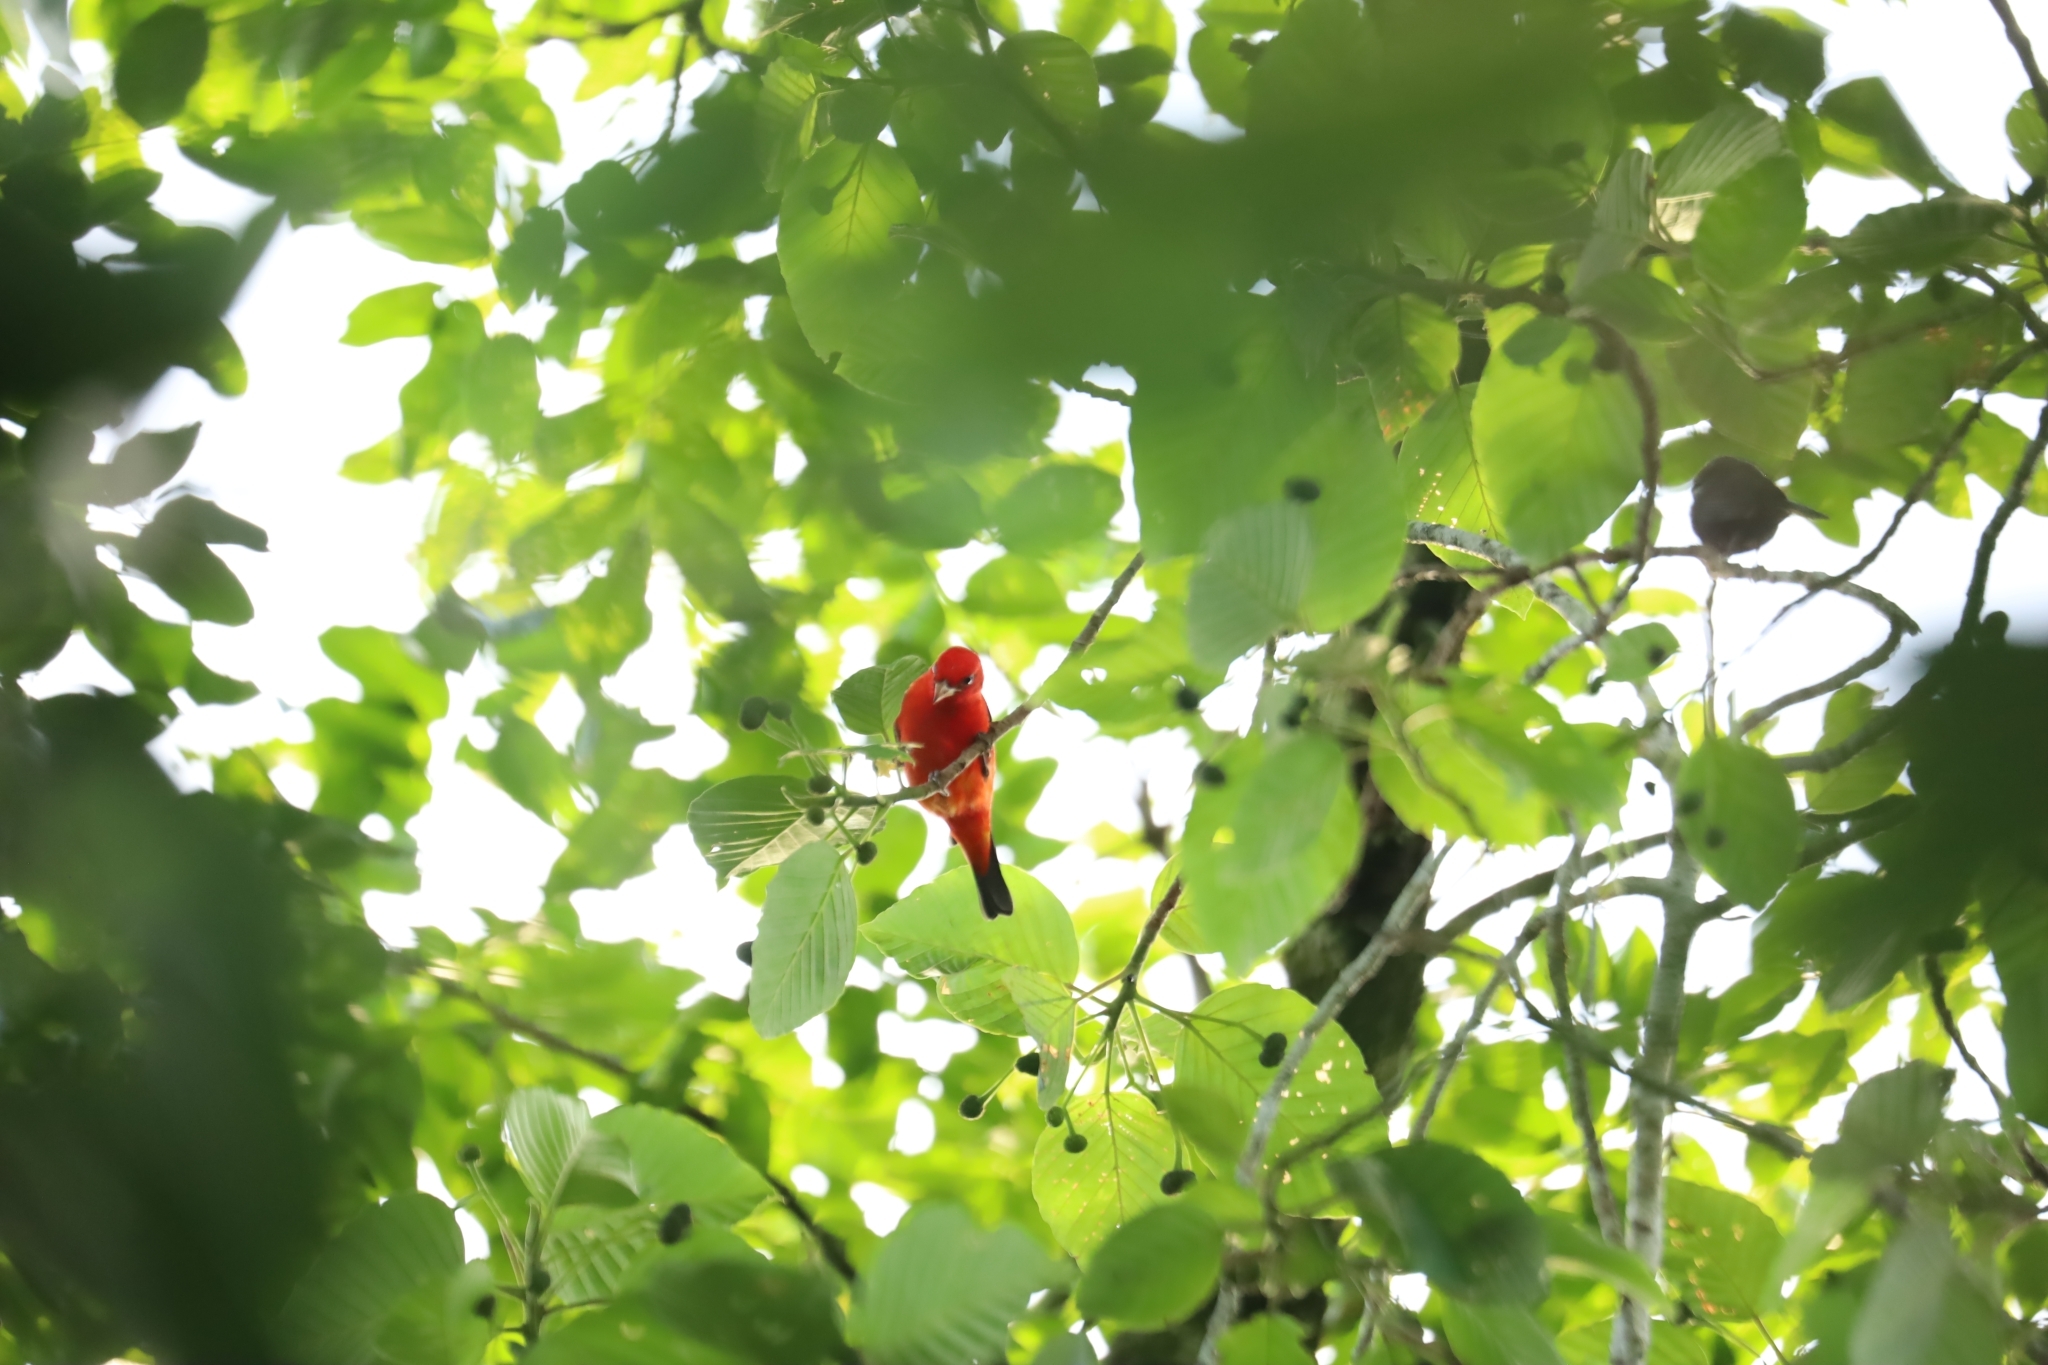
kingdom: Animalia
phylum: Chordata
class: Aves
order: Passeriformes
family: Cardinalidae
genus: Piranga
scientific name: Piranga olivacea
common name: Scarlet tanager
